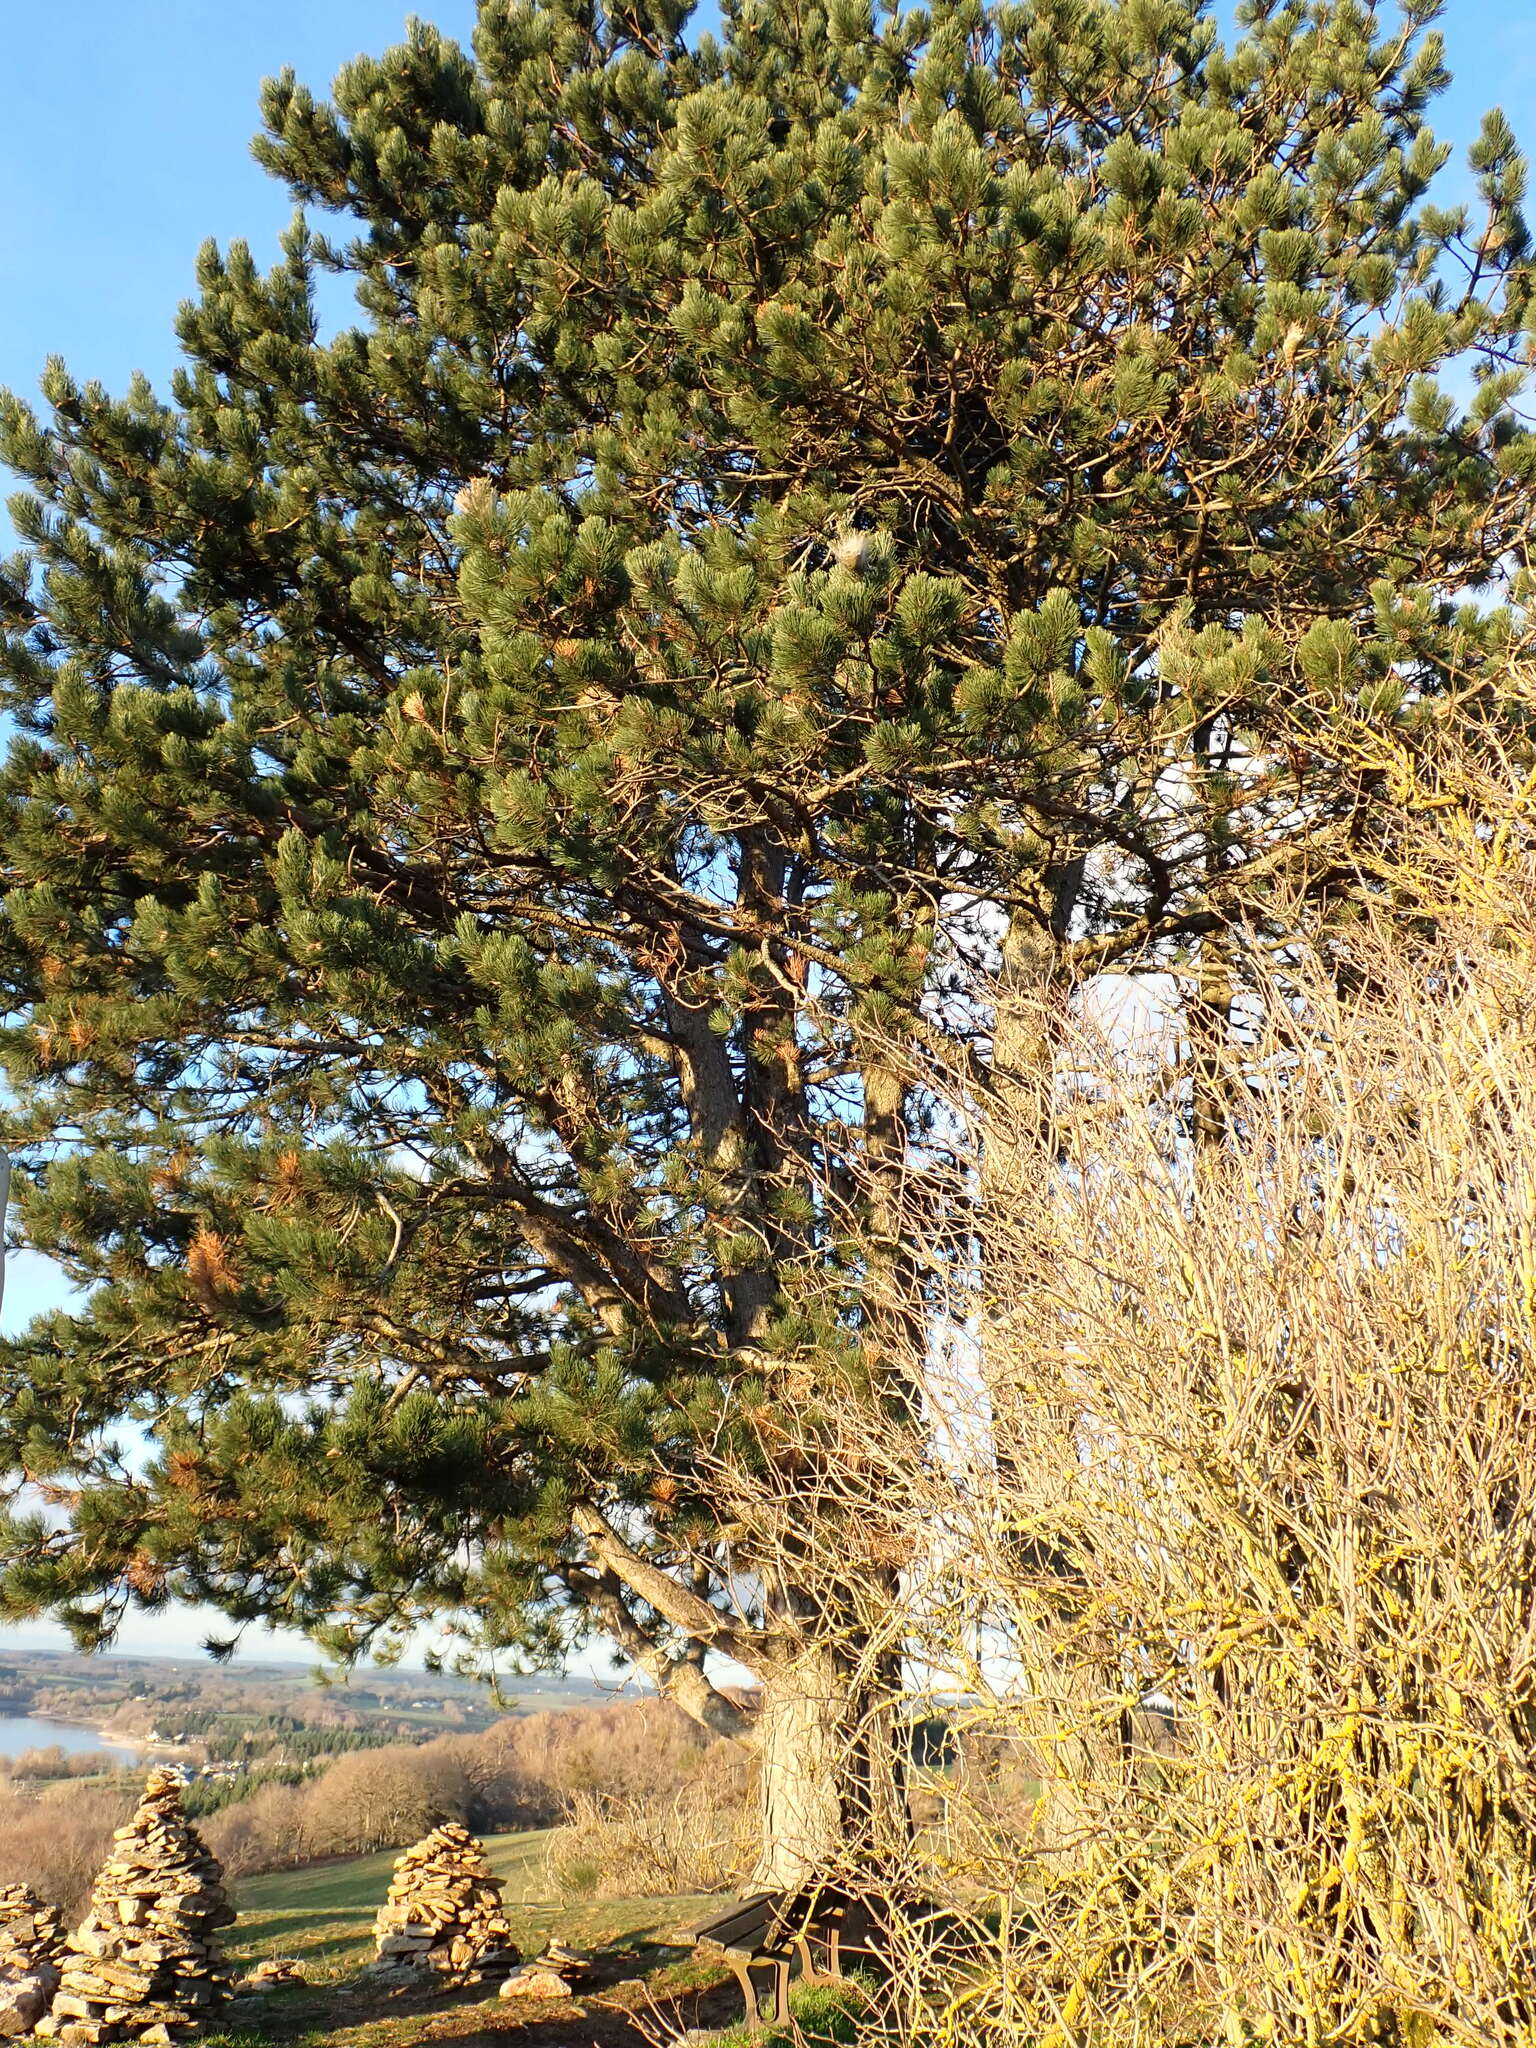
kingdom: Plantae
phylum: Tracheophyta
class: Pinopsida
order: Pinales
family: Pinaceae
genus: Pinus
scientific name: Pinus sylvestris
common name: Scots pine
